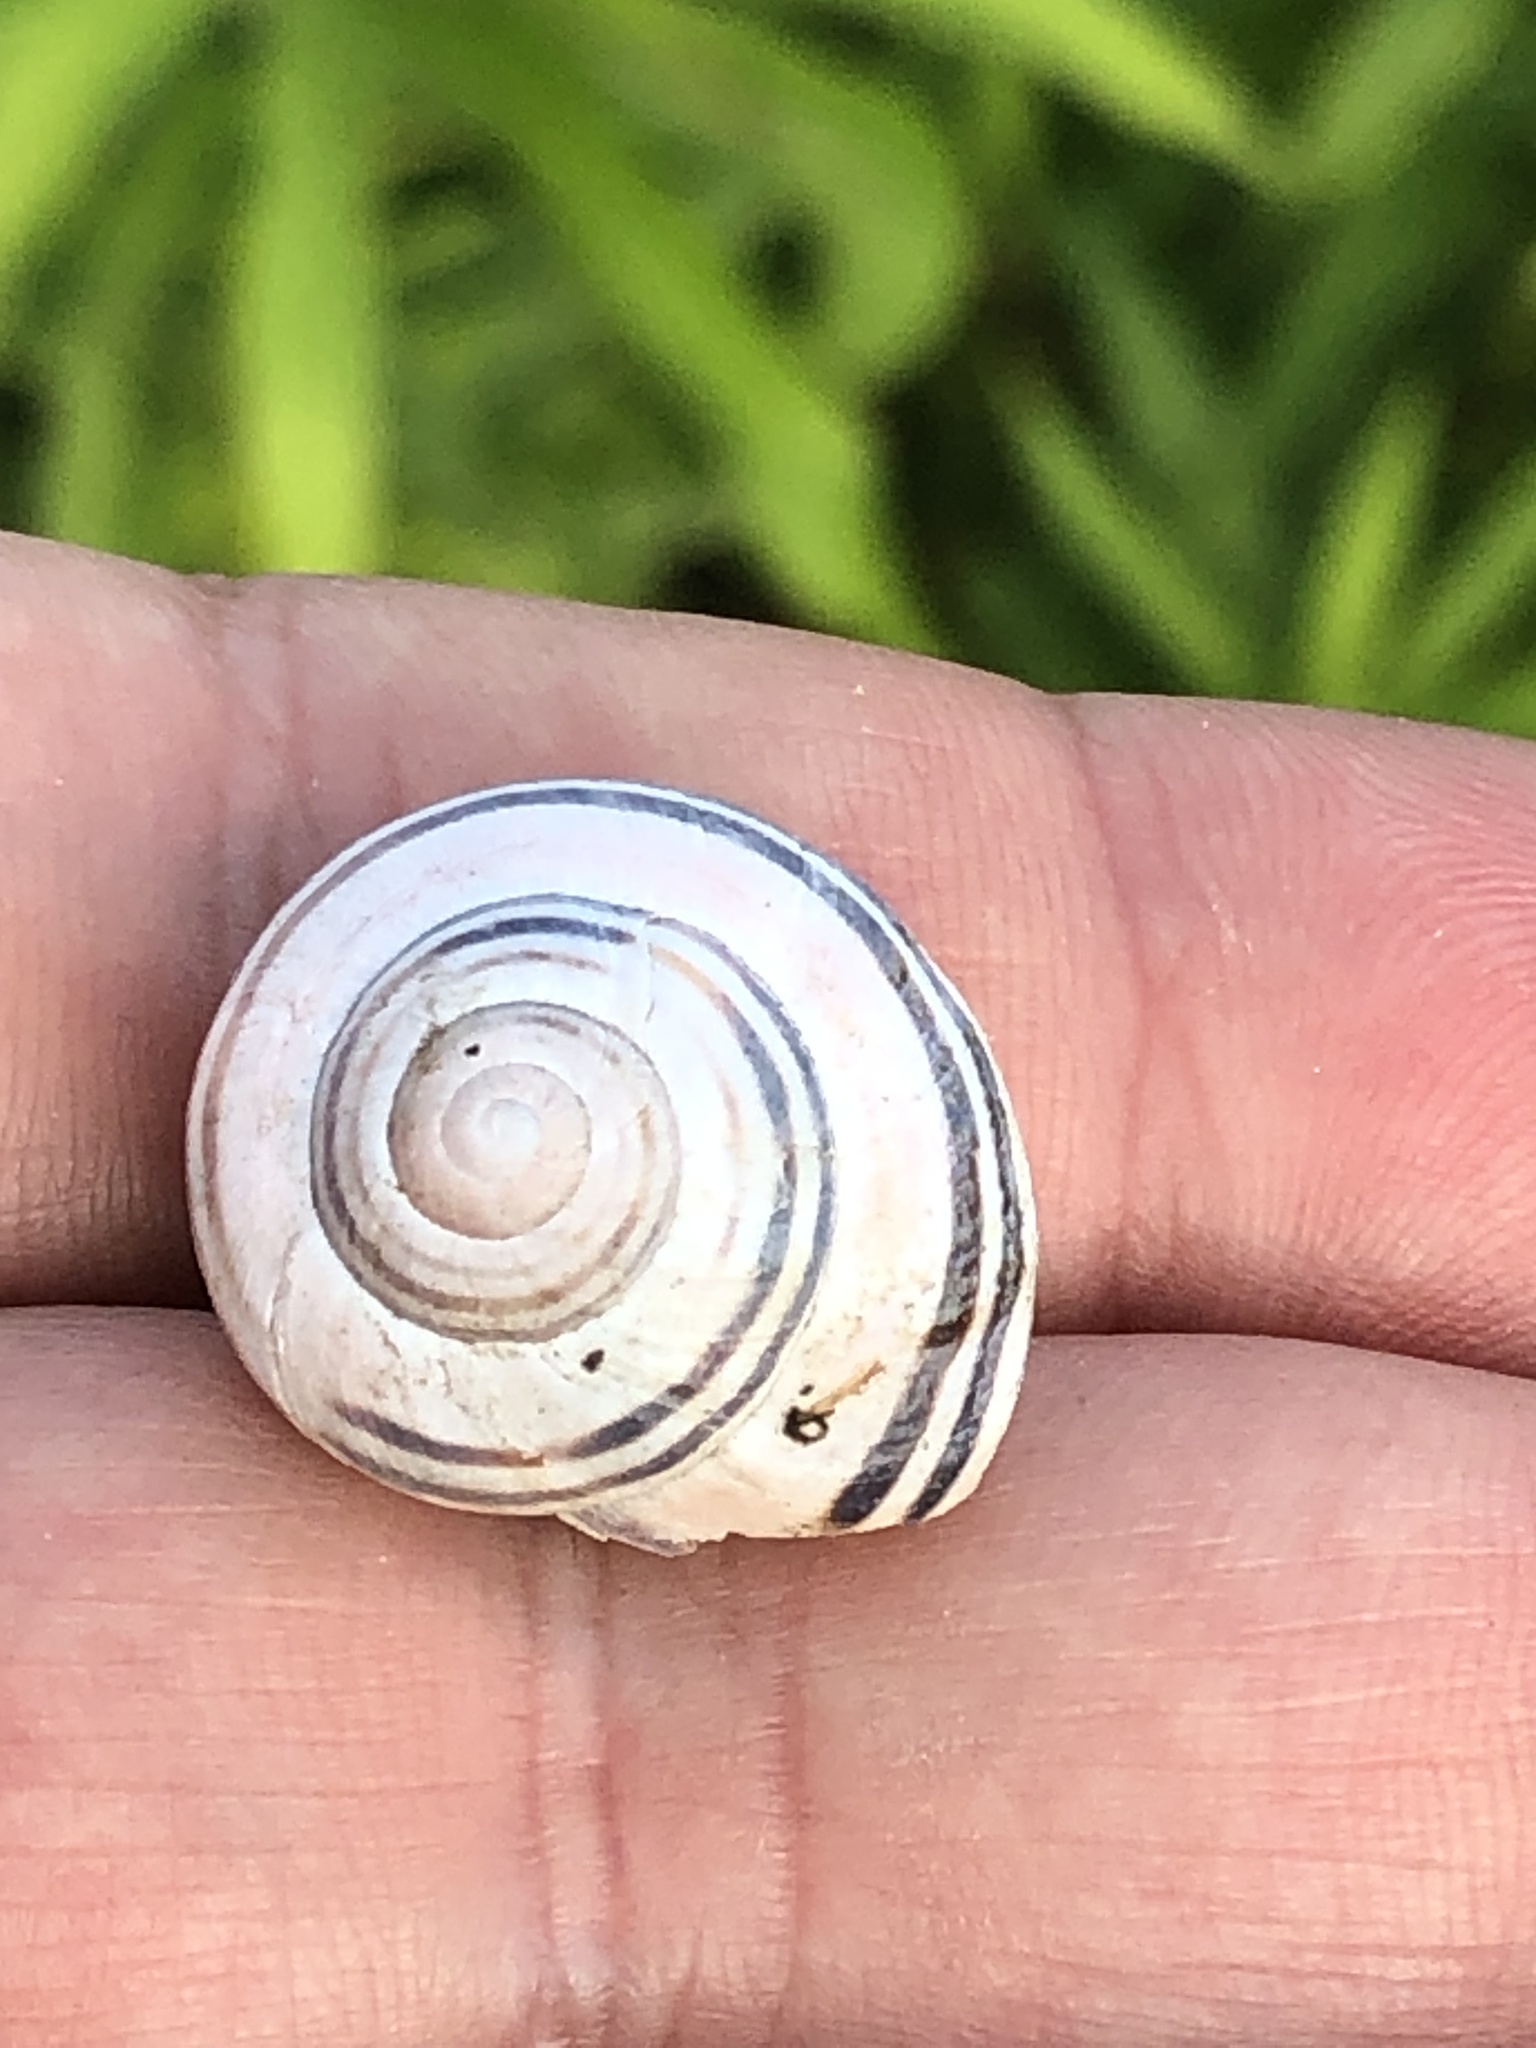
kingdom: Animalia
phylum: Mollusca
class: Gastropoda
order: Stylommatophora
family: Helicidae
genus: Cepaea
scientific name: Cepaea nemoralis
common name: Grovesnail
